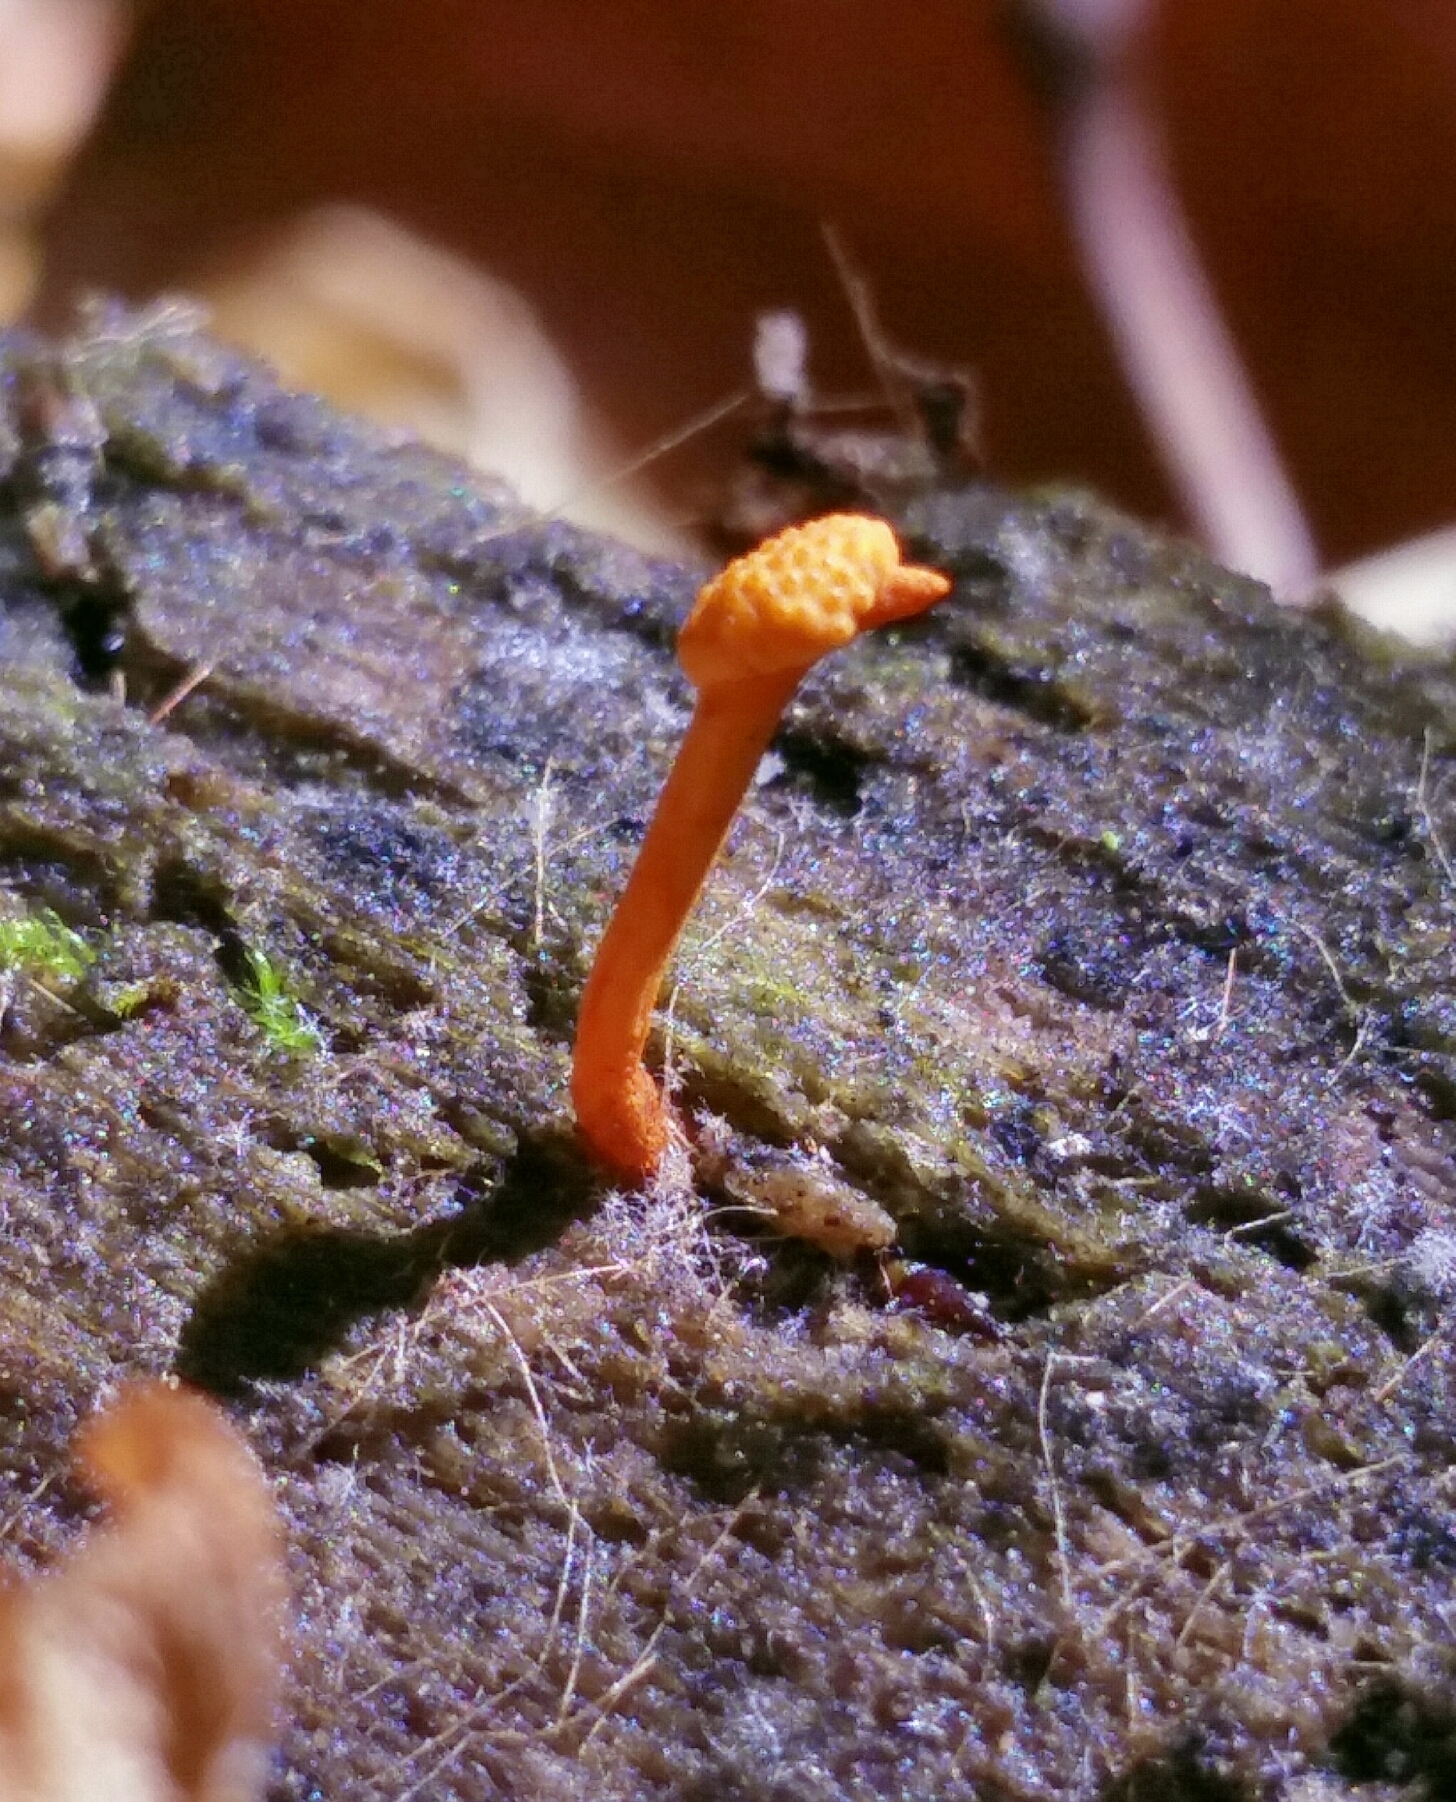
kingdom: Fungi
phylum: Ascomycota
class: Sordariomycetes
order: Hypocreales
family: Ophiocordycipitaceae
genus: Ophiocordyceps
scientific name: Ophiocordyceps variabilis
